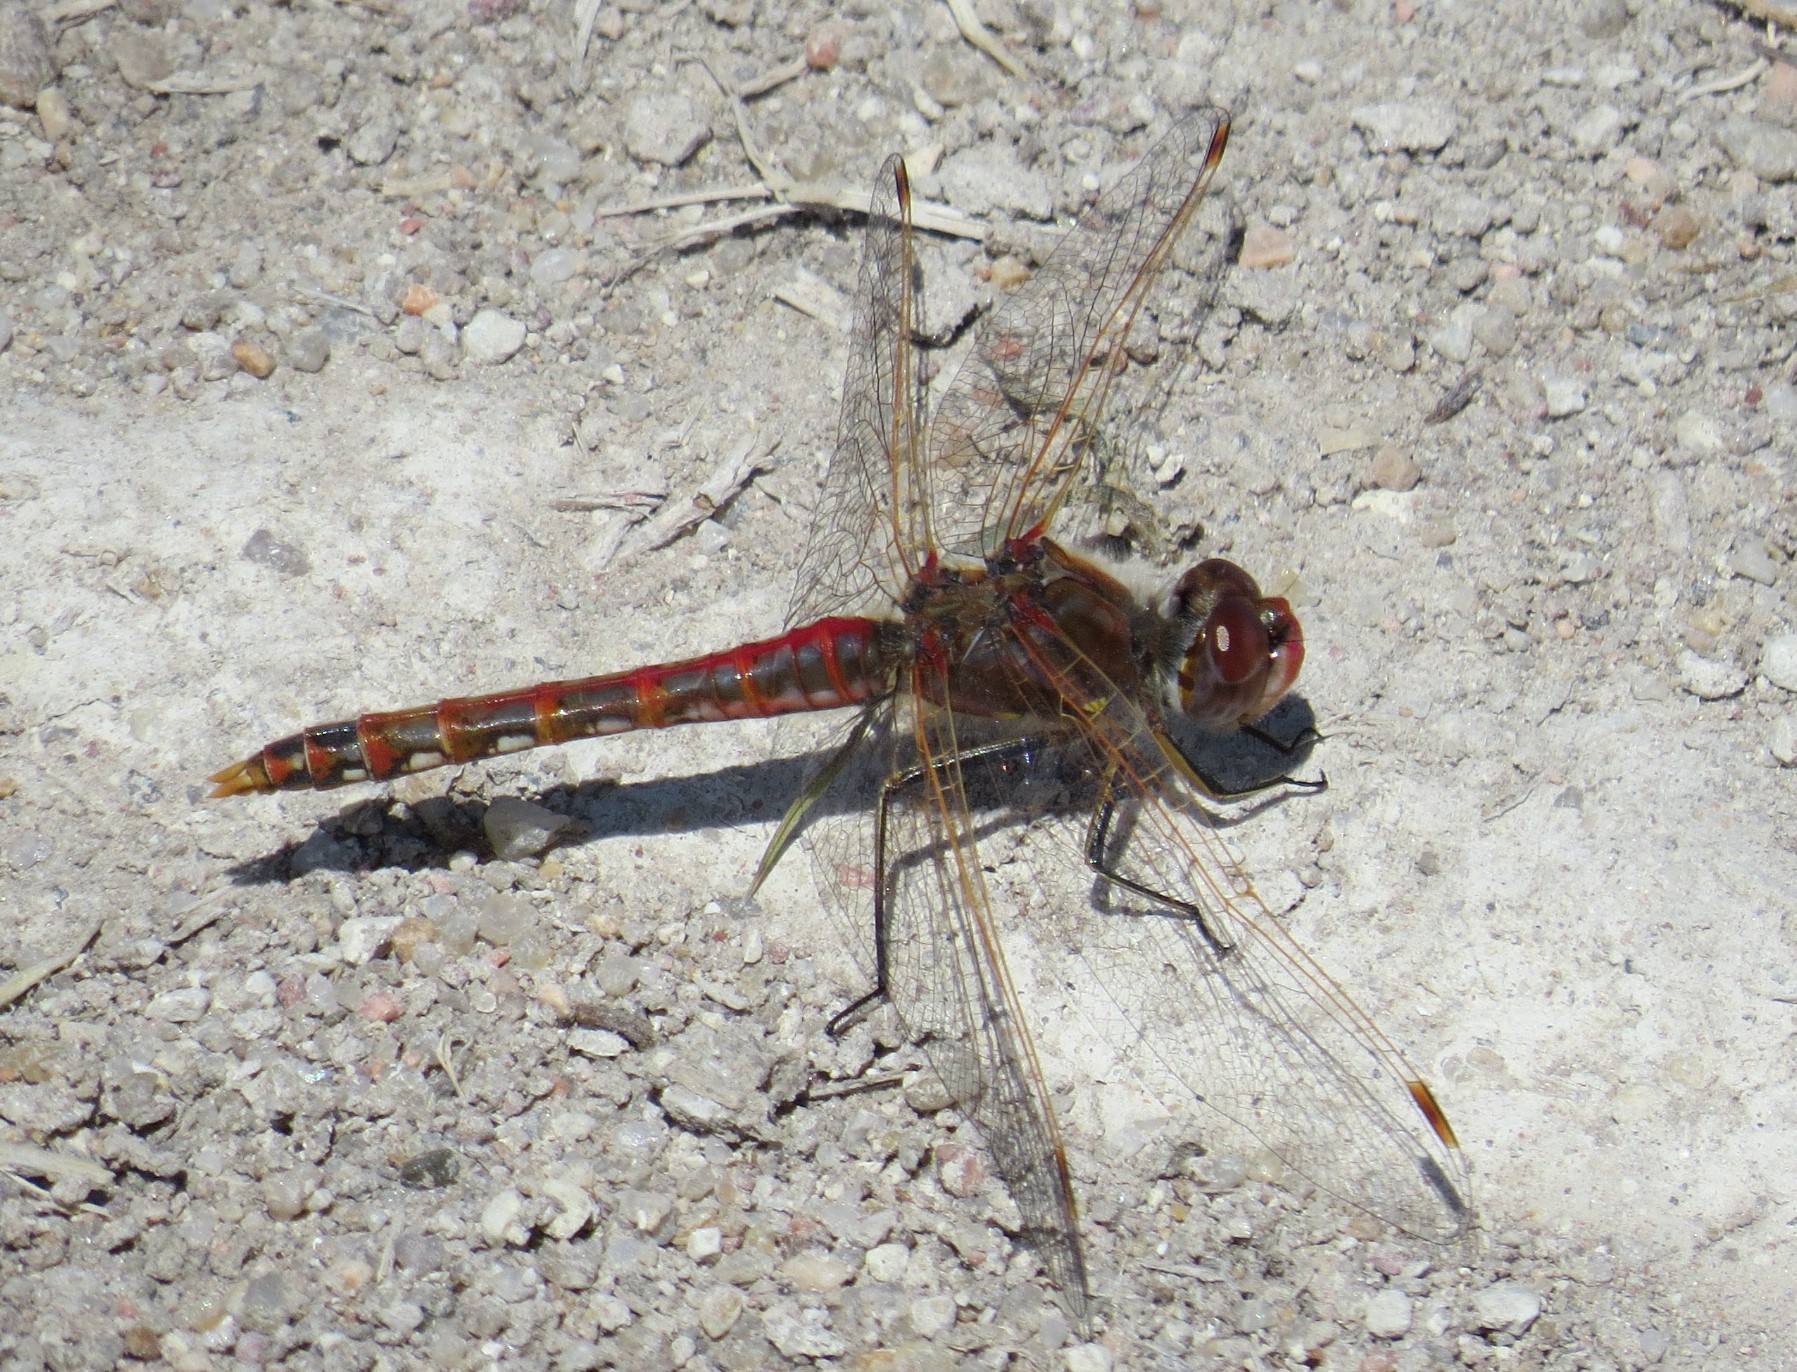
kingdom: Animalia
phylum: Arthropoda
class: Insecta
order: Odonata
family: Libellulidae
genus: Sympetrum
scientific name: Sympetrum corruptum
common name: Variegated meadowhawk
